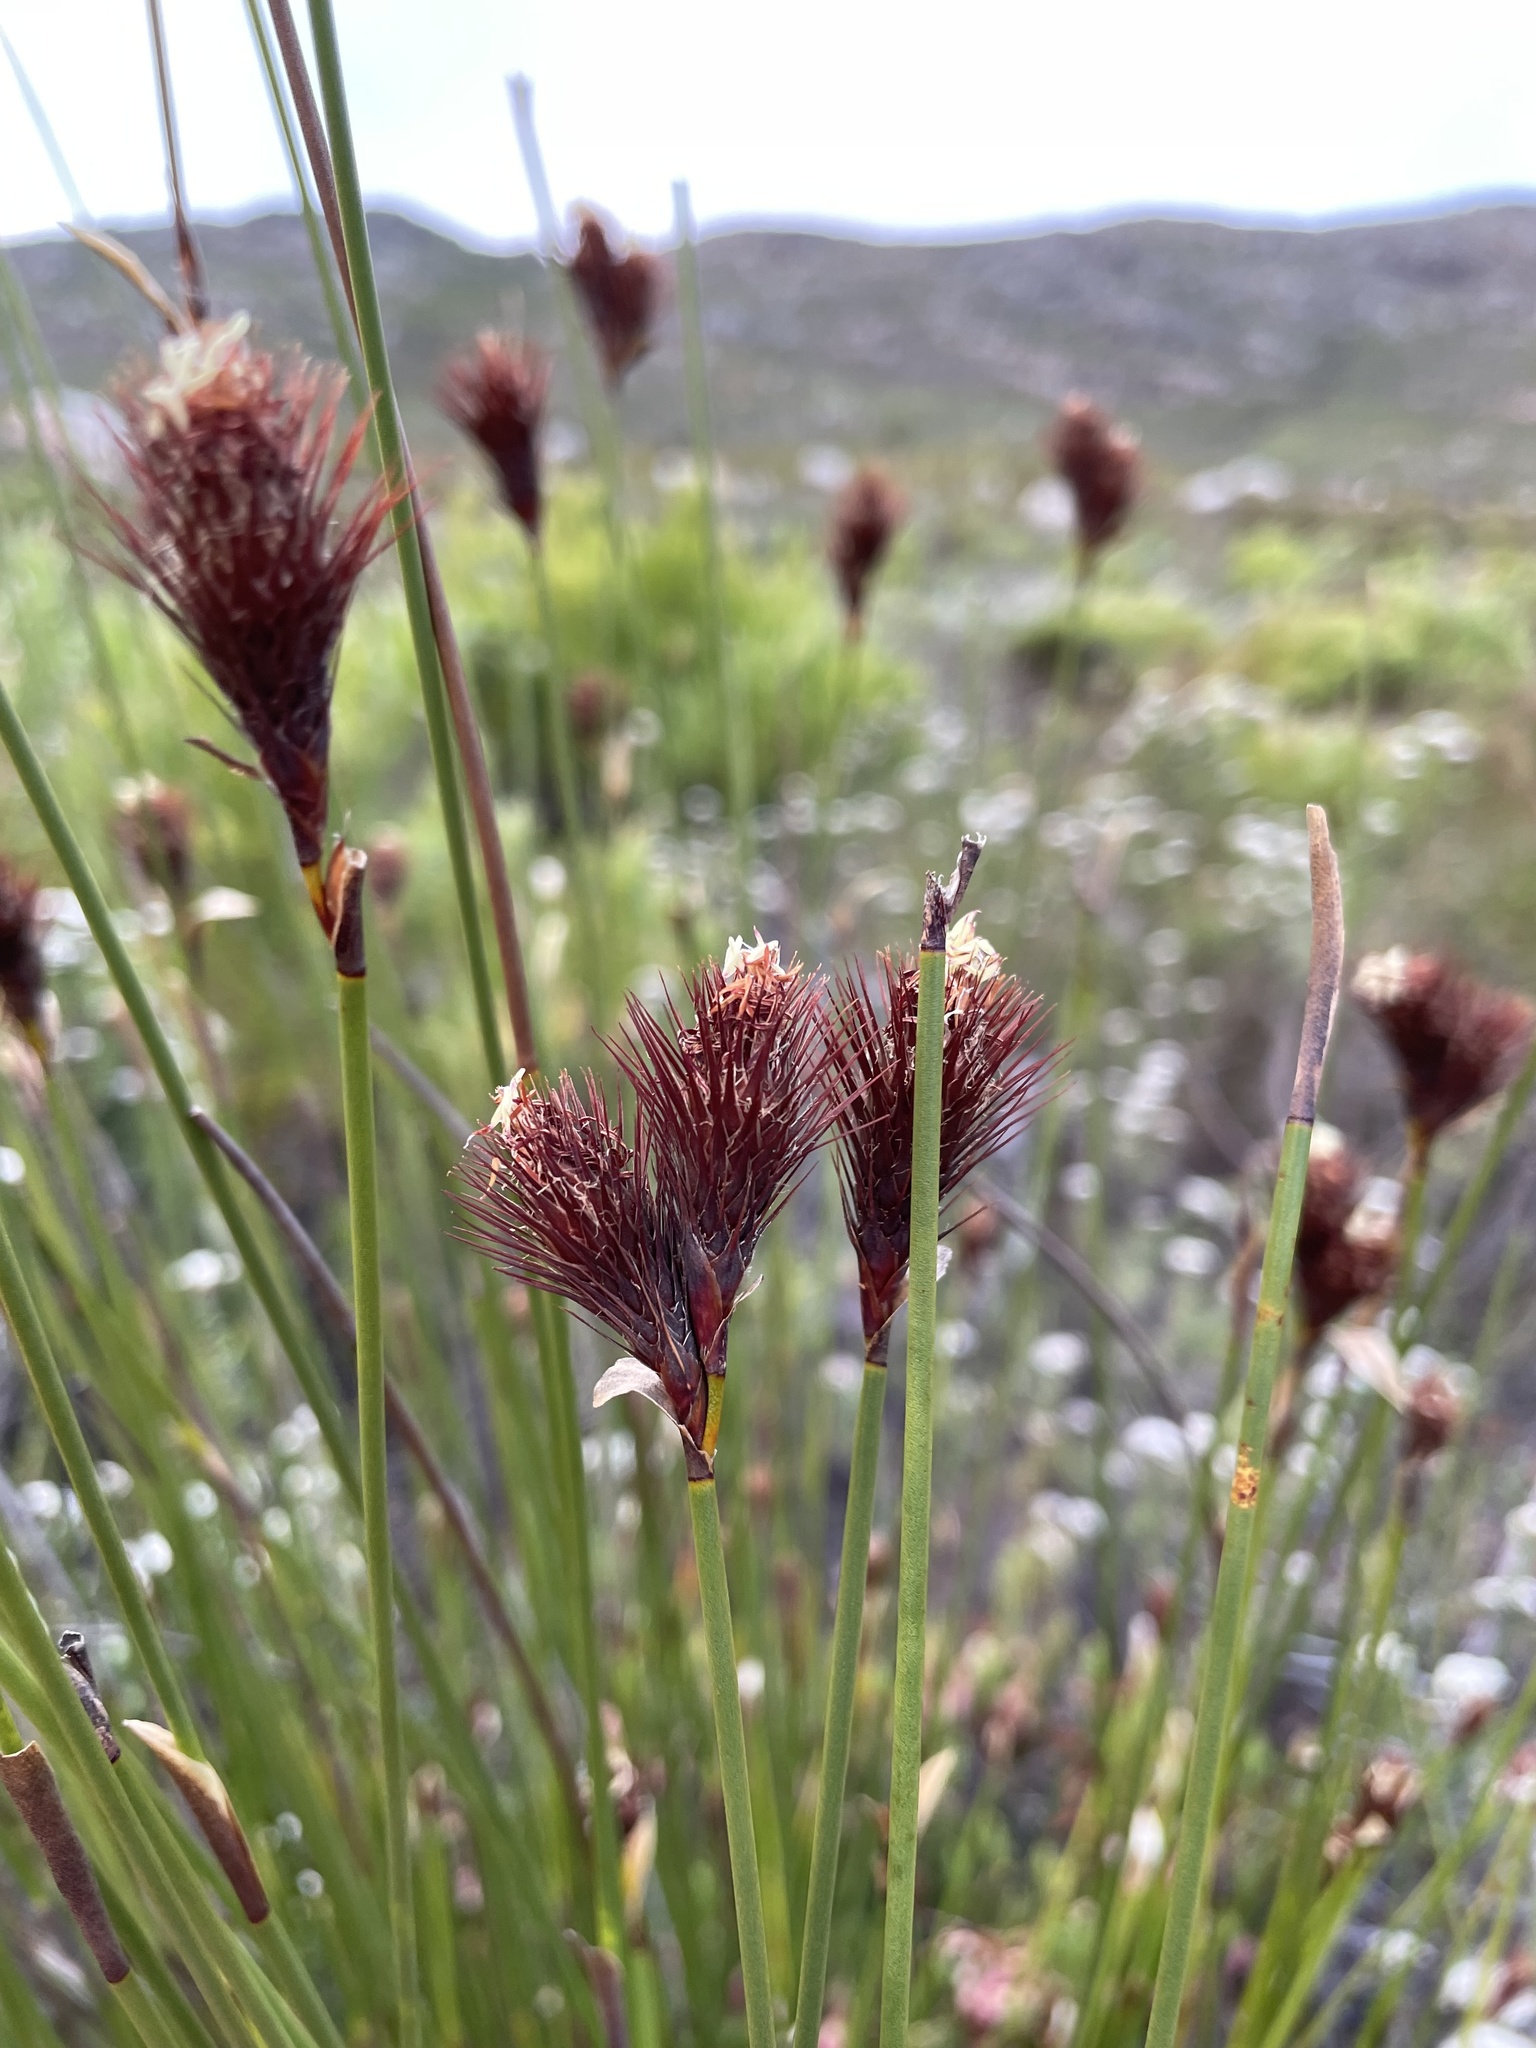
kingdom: Plantae
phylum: Tracheophyta
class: Liliopsida
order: Poales
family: Restionaceae
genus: Hypodiscus
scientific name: Hypodiscus aristatus
